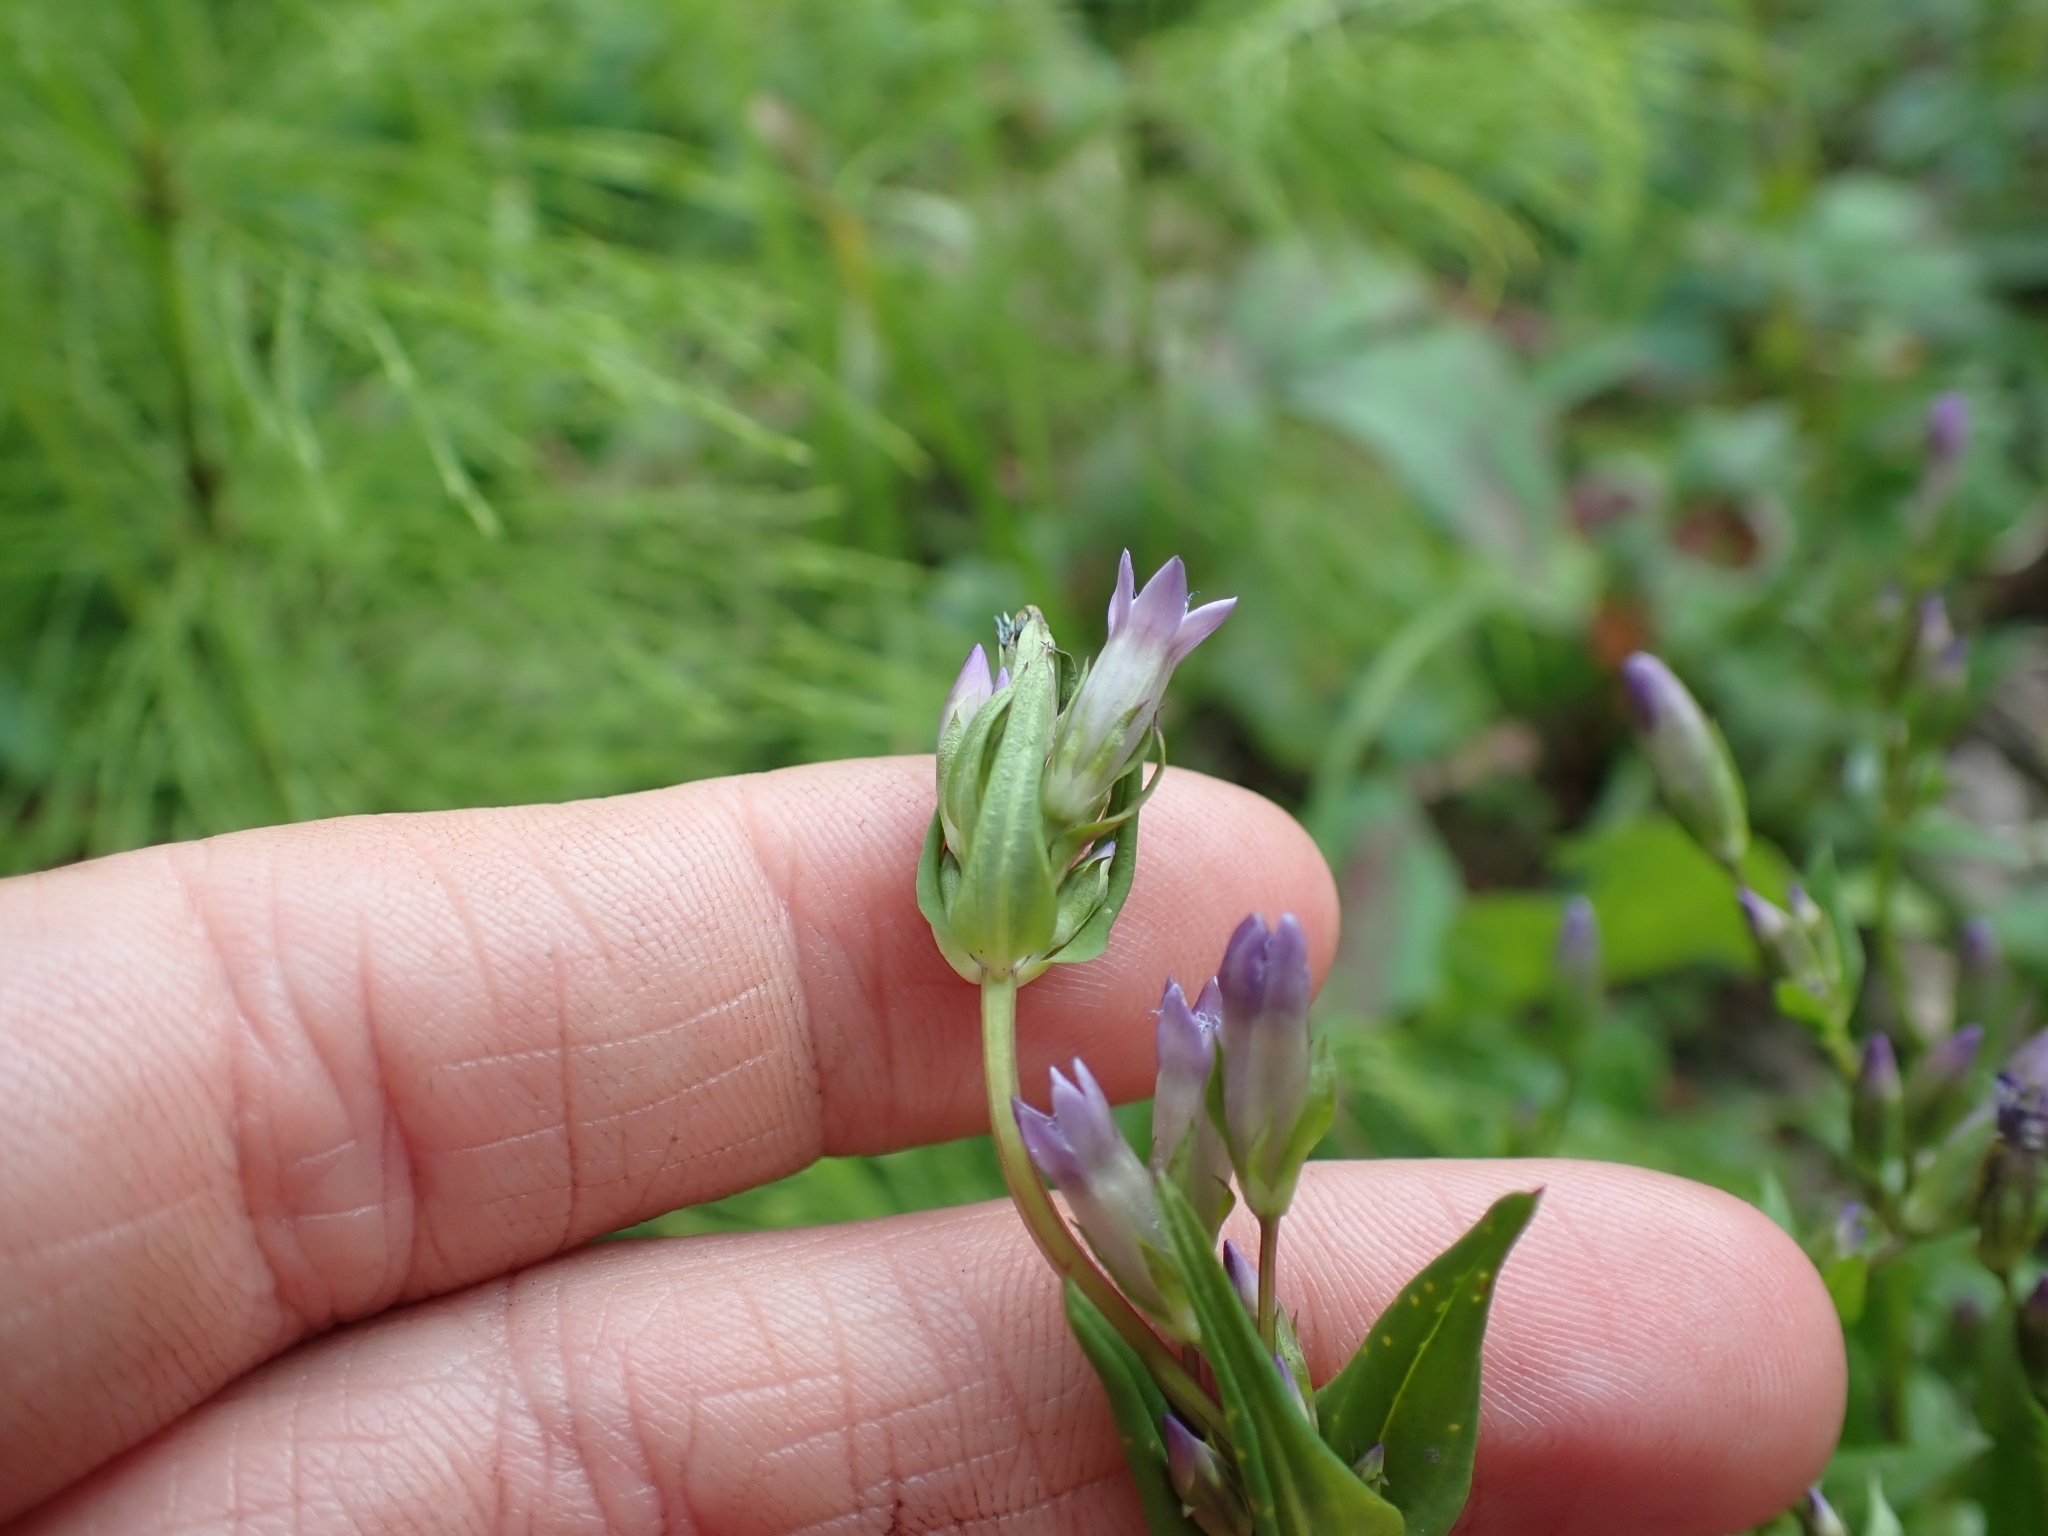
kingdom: Plantae
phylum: Tracheophyta
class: Magnoliopsida
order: Gentianales
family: Gentianaceae
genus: Gentianella
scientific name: Gentianella amarella
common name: Autumn gentian
